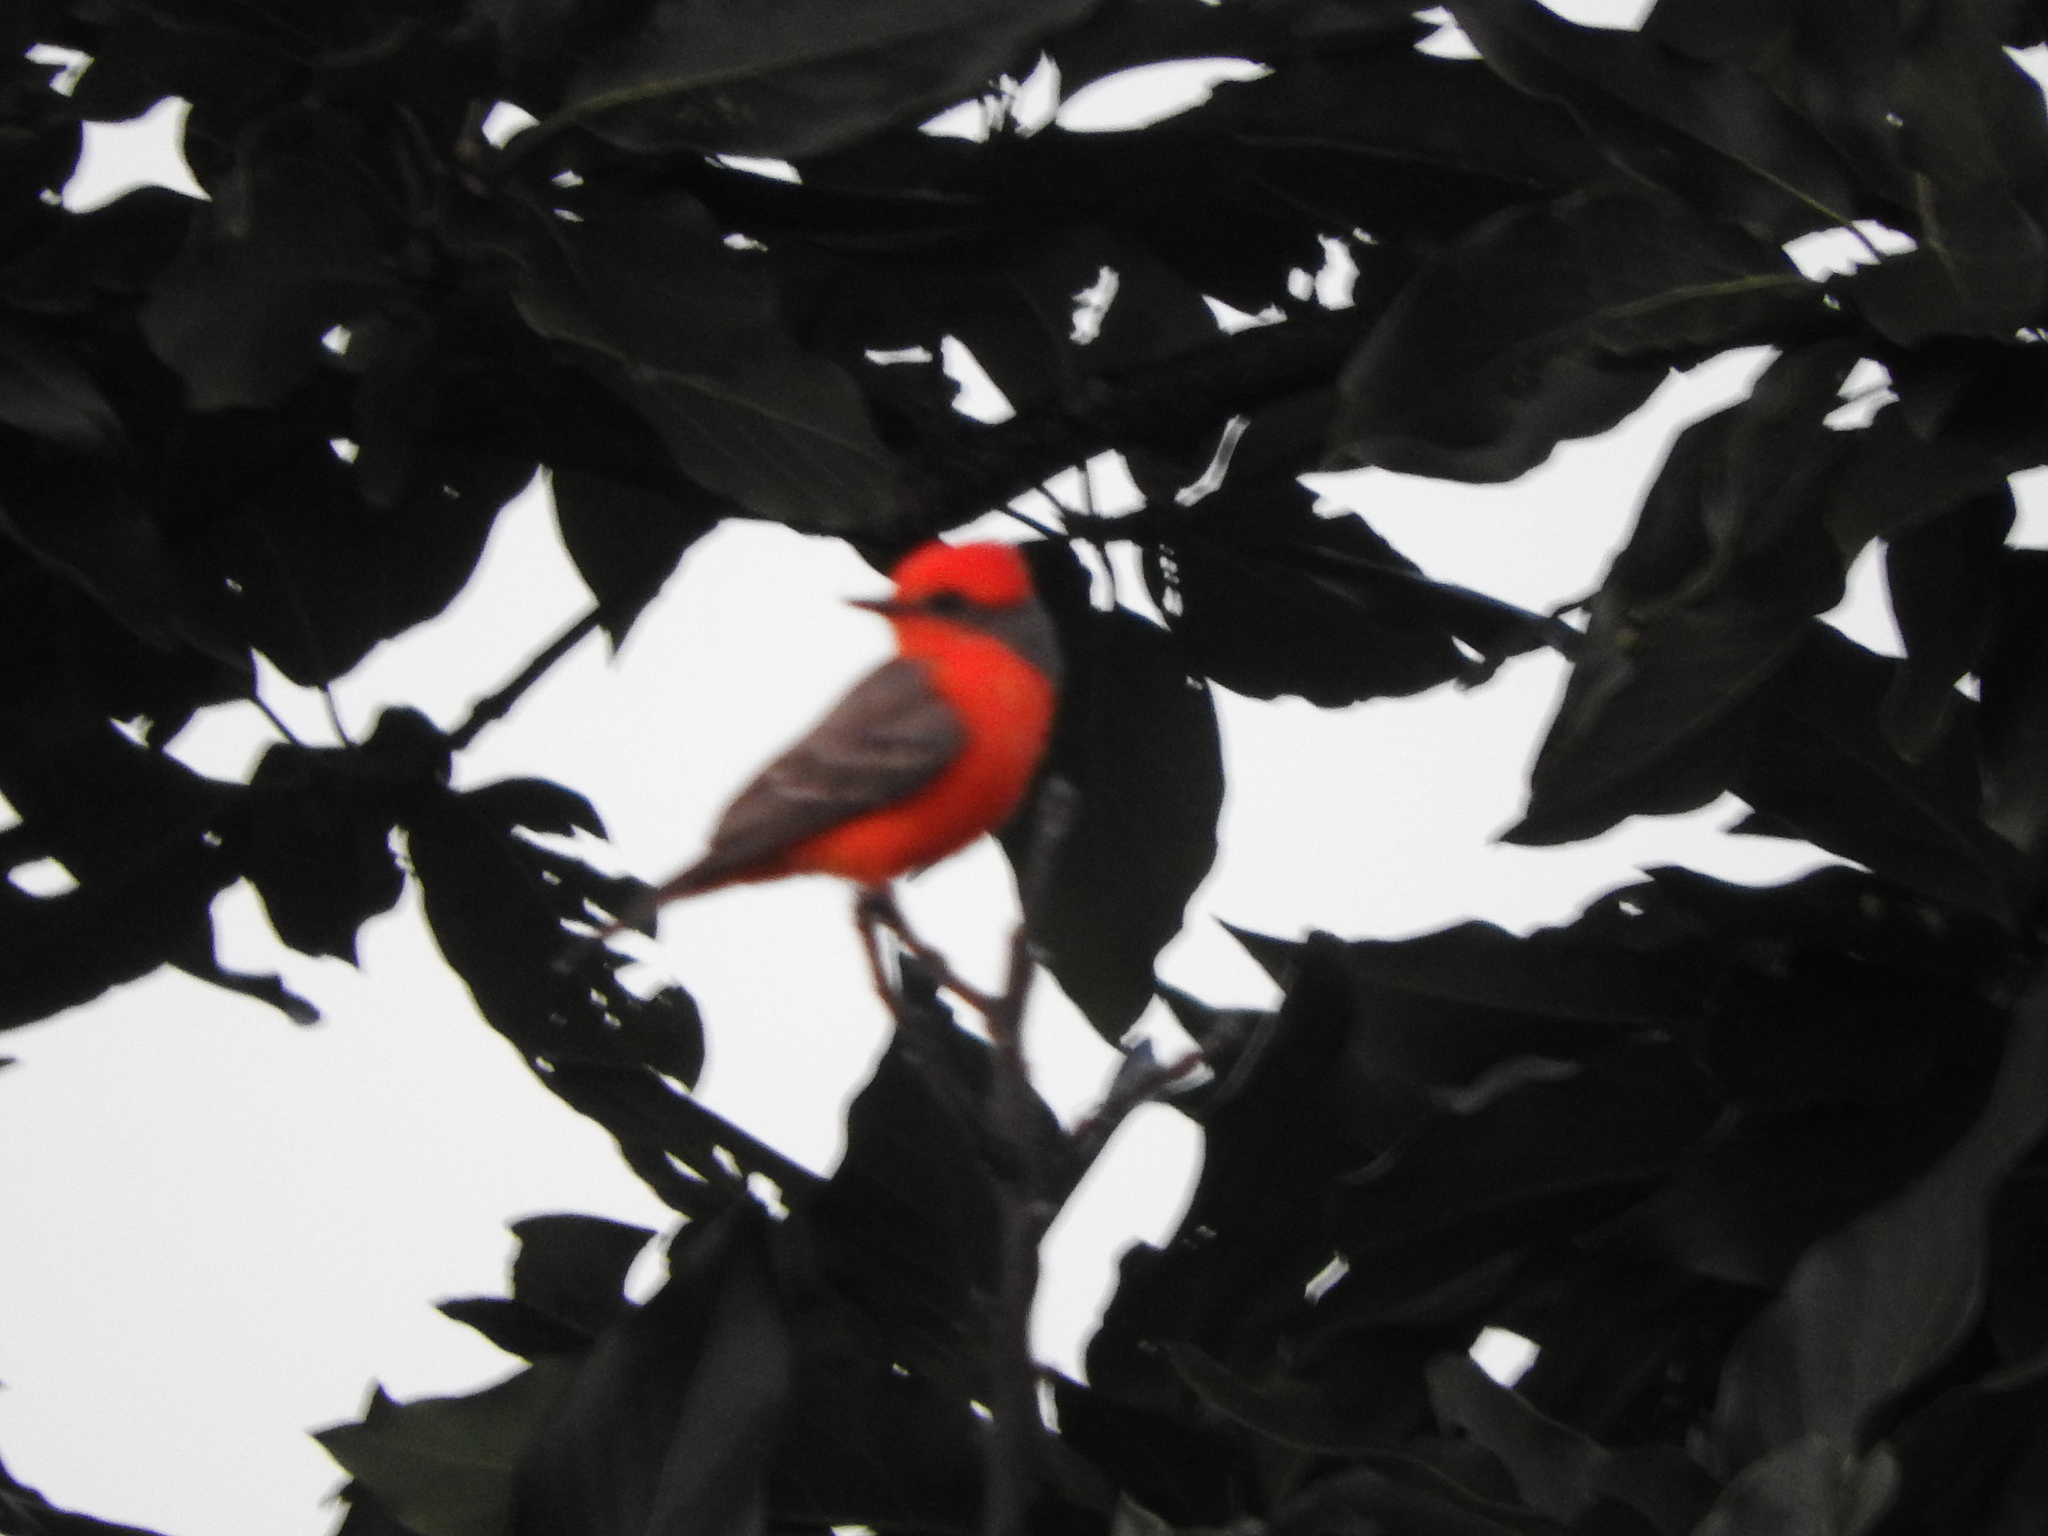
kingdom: Animalia
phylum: Chordata
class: Aves
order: Passeriformes
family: Tyrannidae
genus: Pyrocephalus
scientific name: Pyrocephalus rubinus
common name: Vermilion flycatcher
